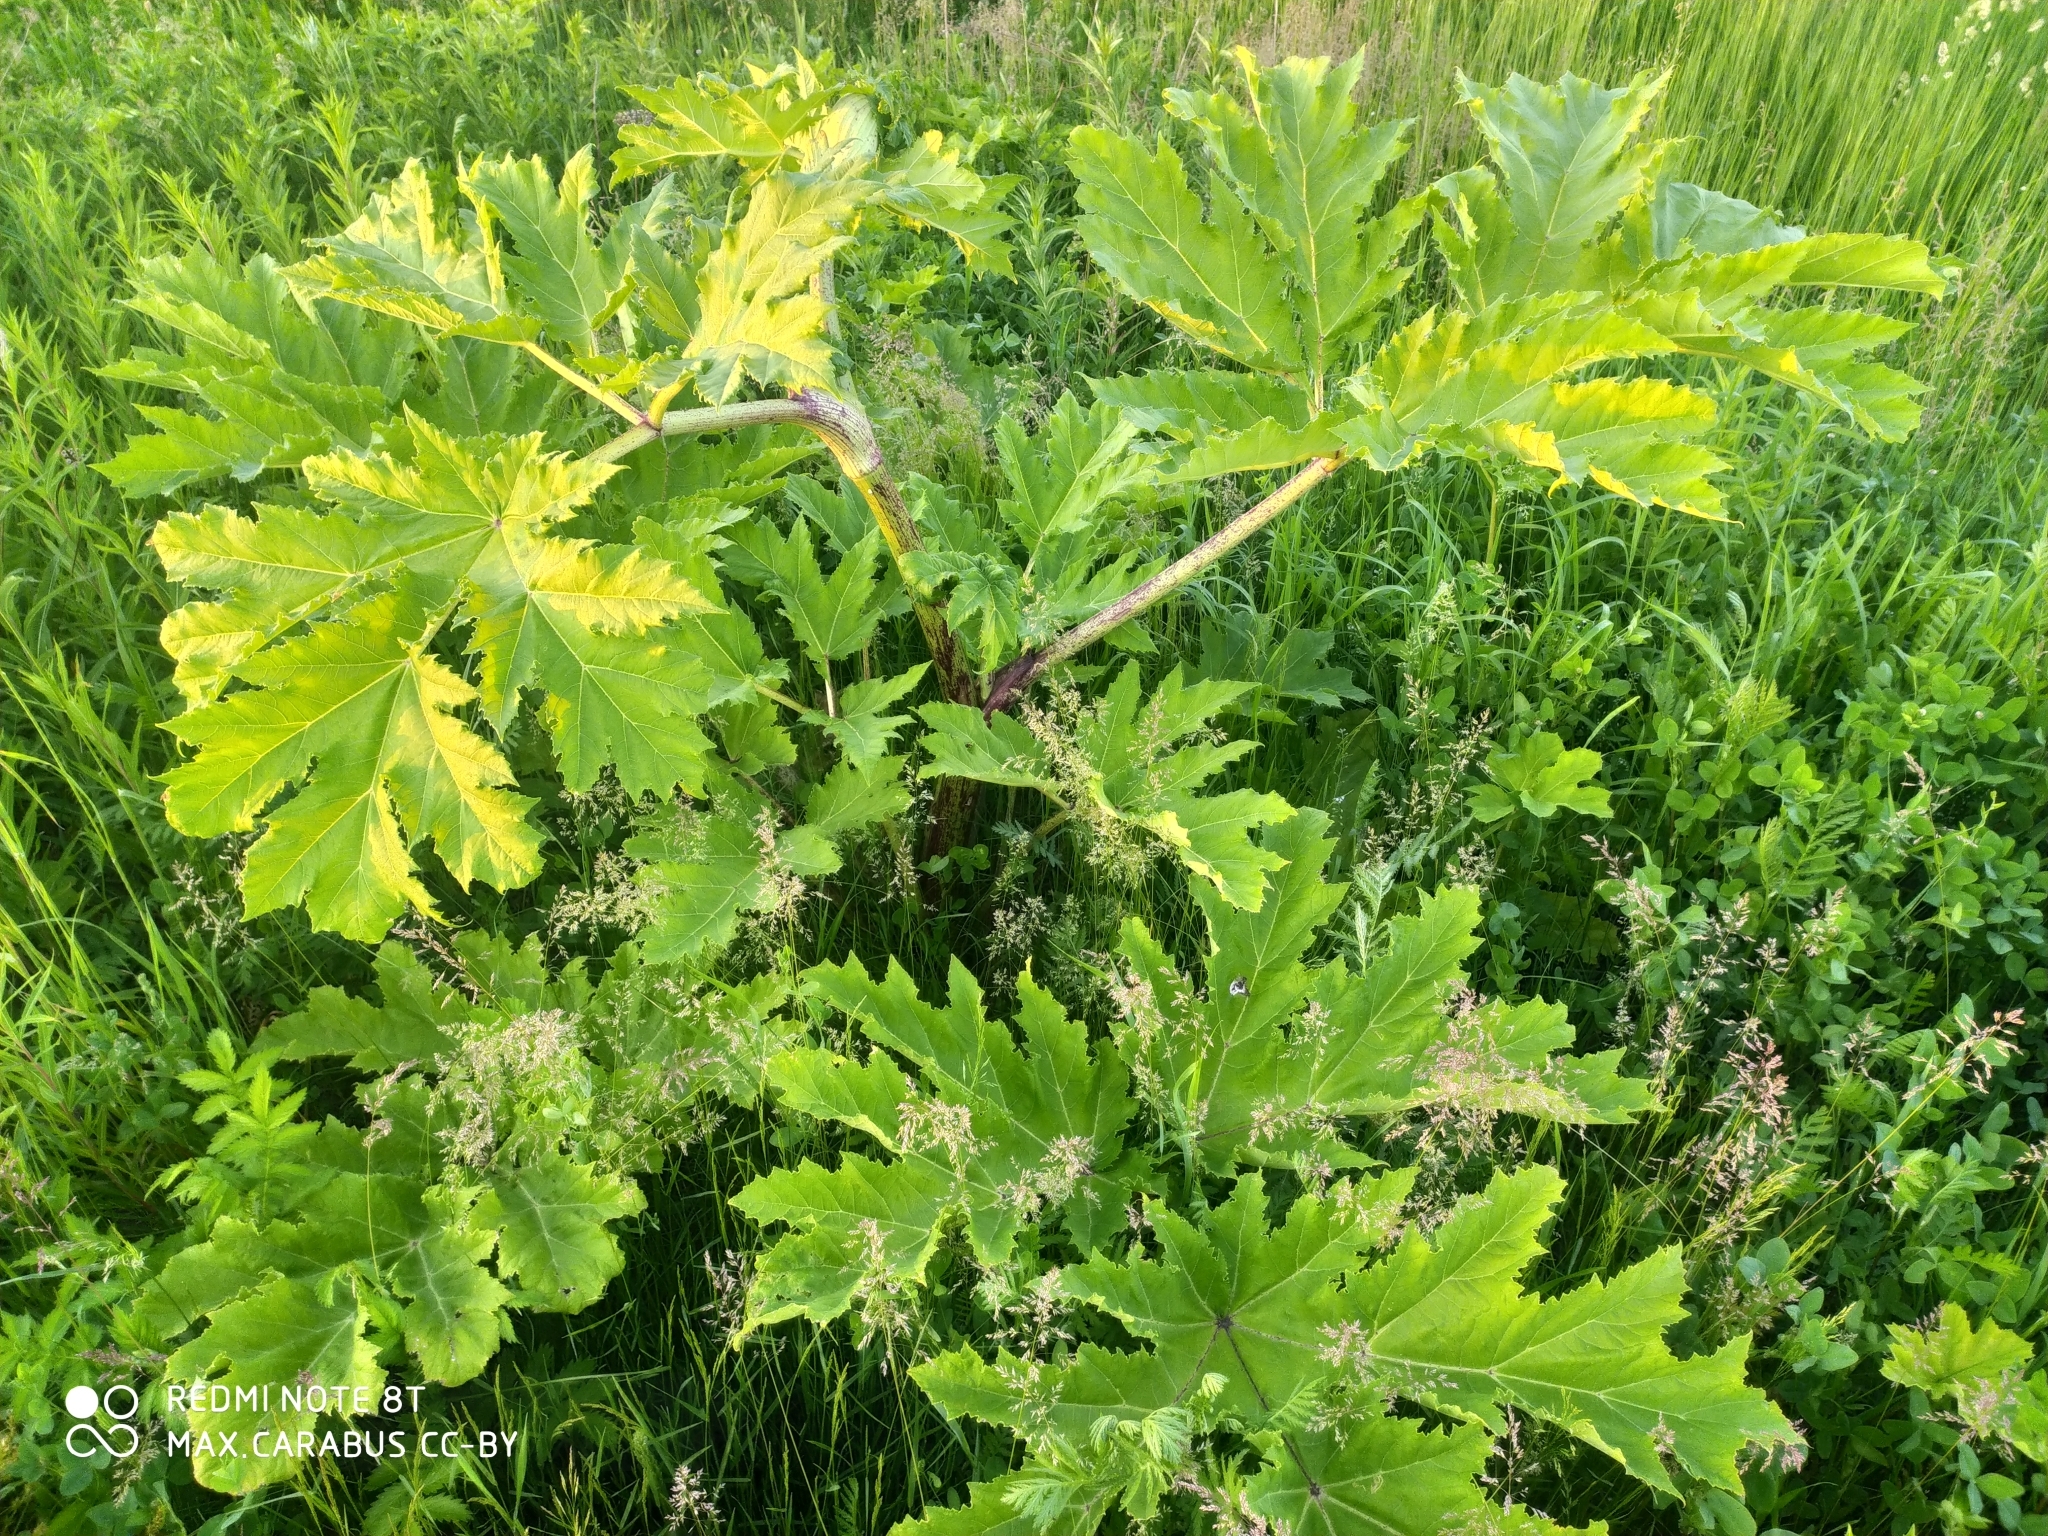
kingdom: Plantae
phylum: Tracheophyta
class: Magnoliopsida
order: Apiales
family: Apiaceae
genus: Heracleum
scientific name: Heracleum sosnowskyi
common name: Sosnowsky's hogweed
